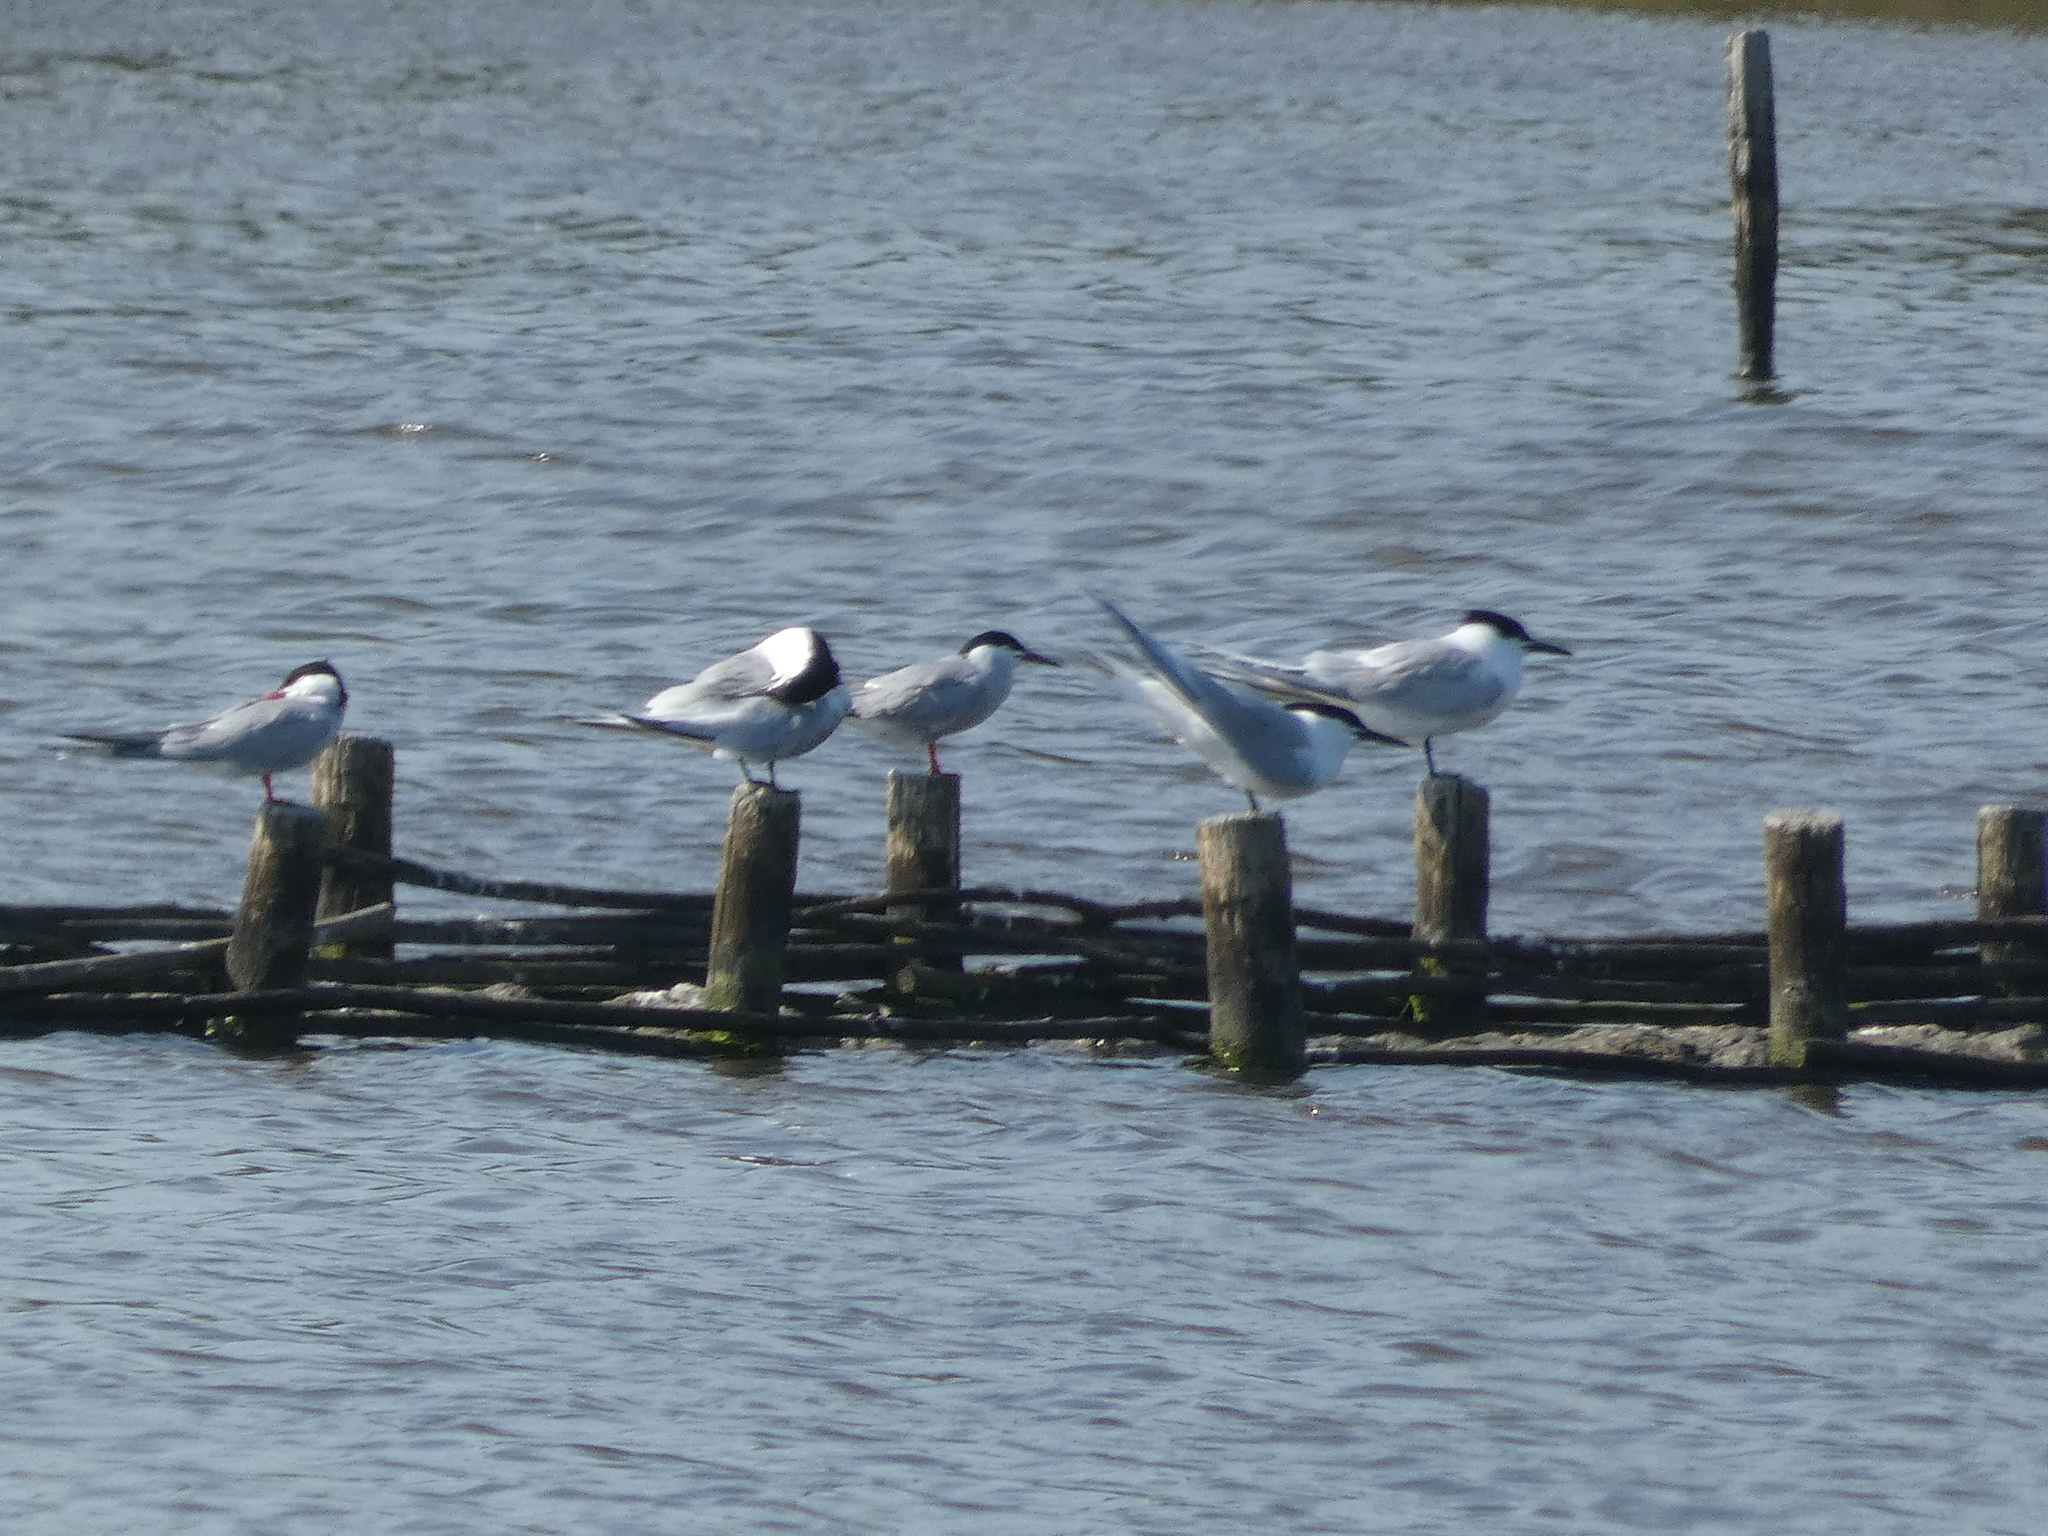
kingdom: Animalia
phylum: Chordata
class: Aves
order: Charadriiformes
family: Laridae
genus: Sterna
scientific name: Sterna hirundo
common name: Common tern
